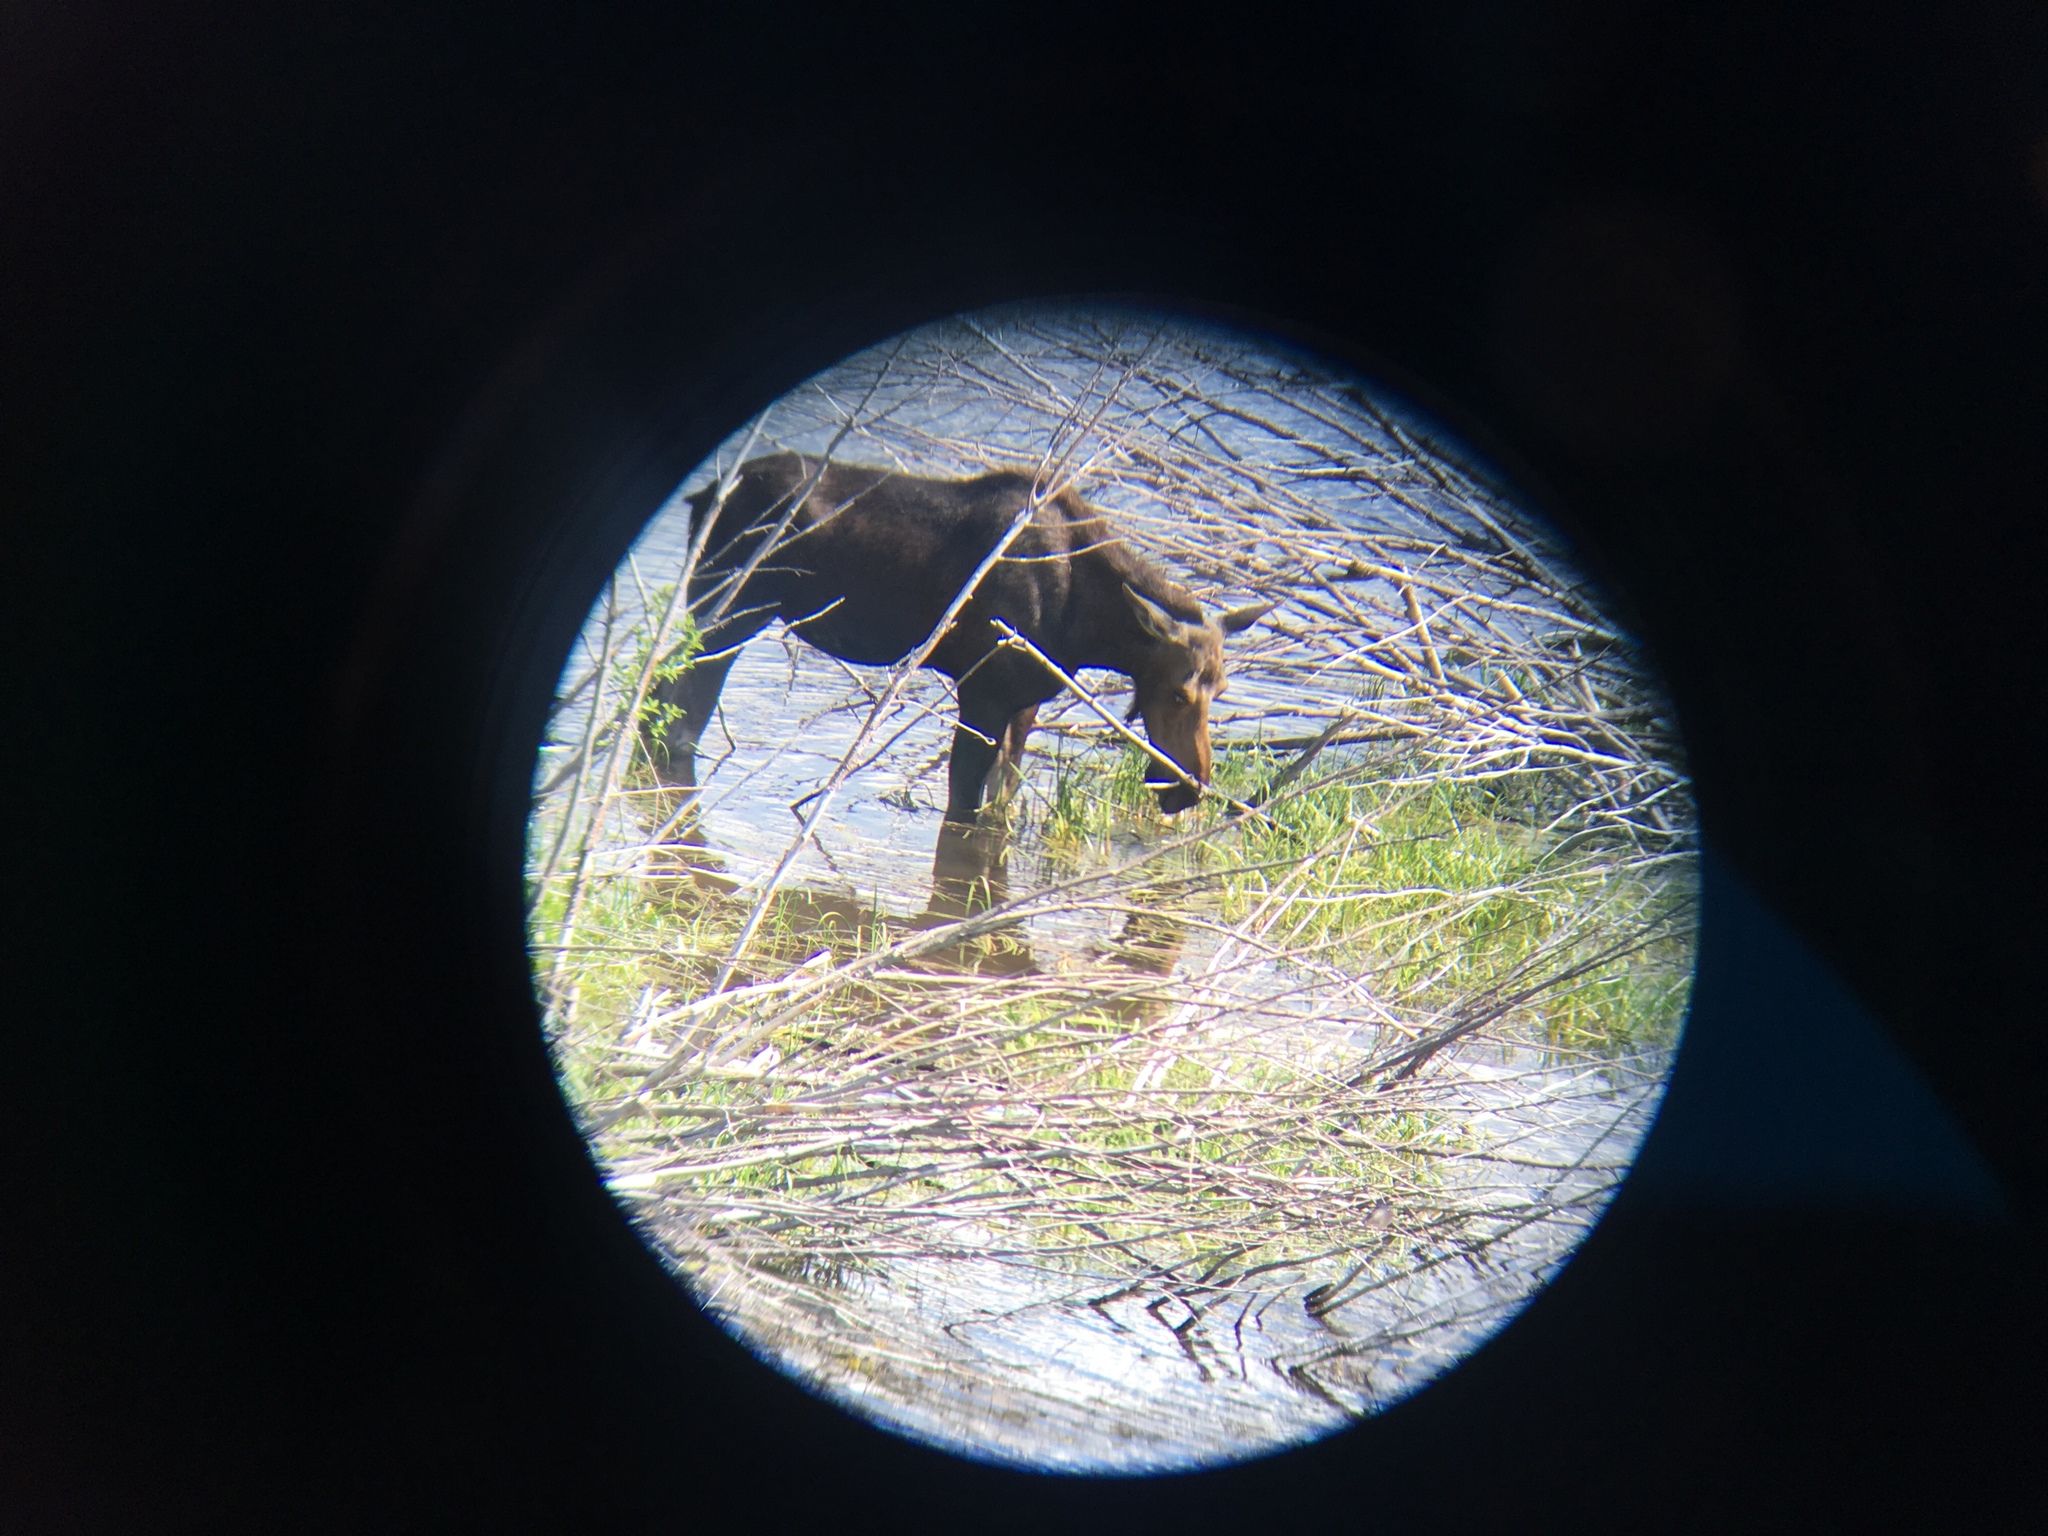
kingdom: Animalia
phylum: Chordata
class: Mammalia
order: Artiodactyla
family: Cervidae
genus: Alces
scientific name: Alces alces
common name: Moose
